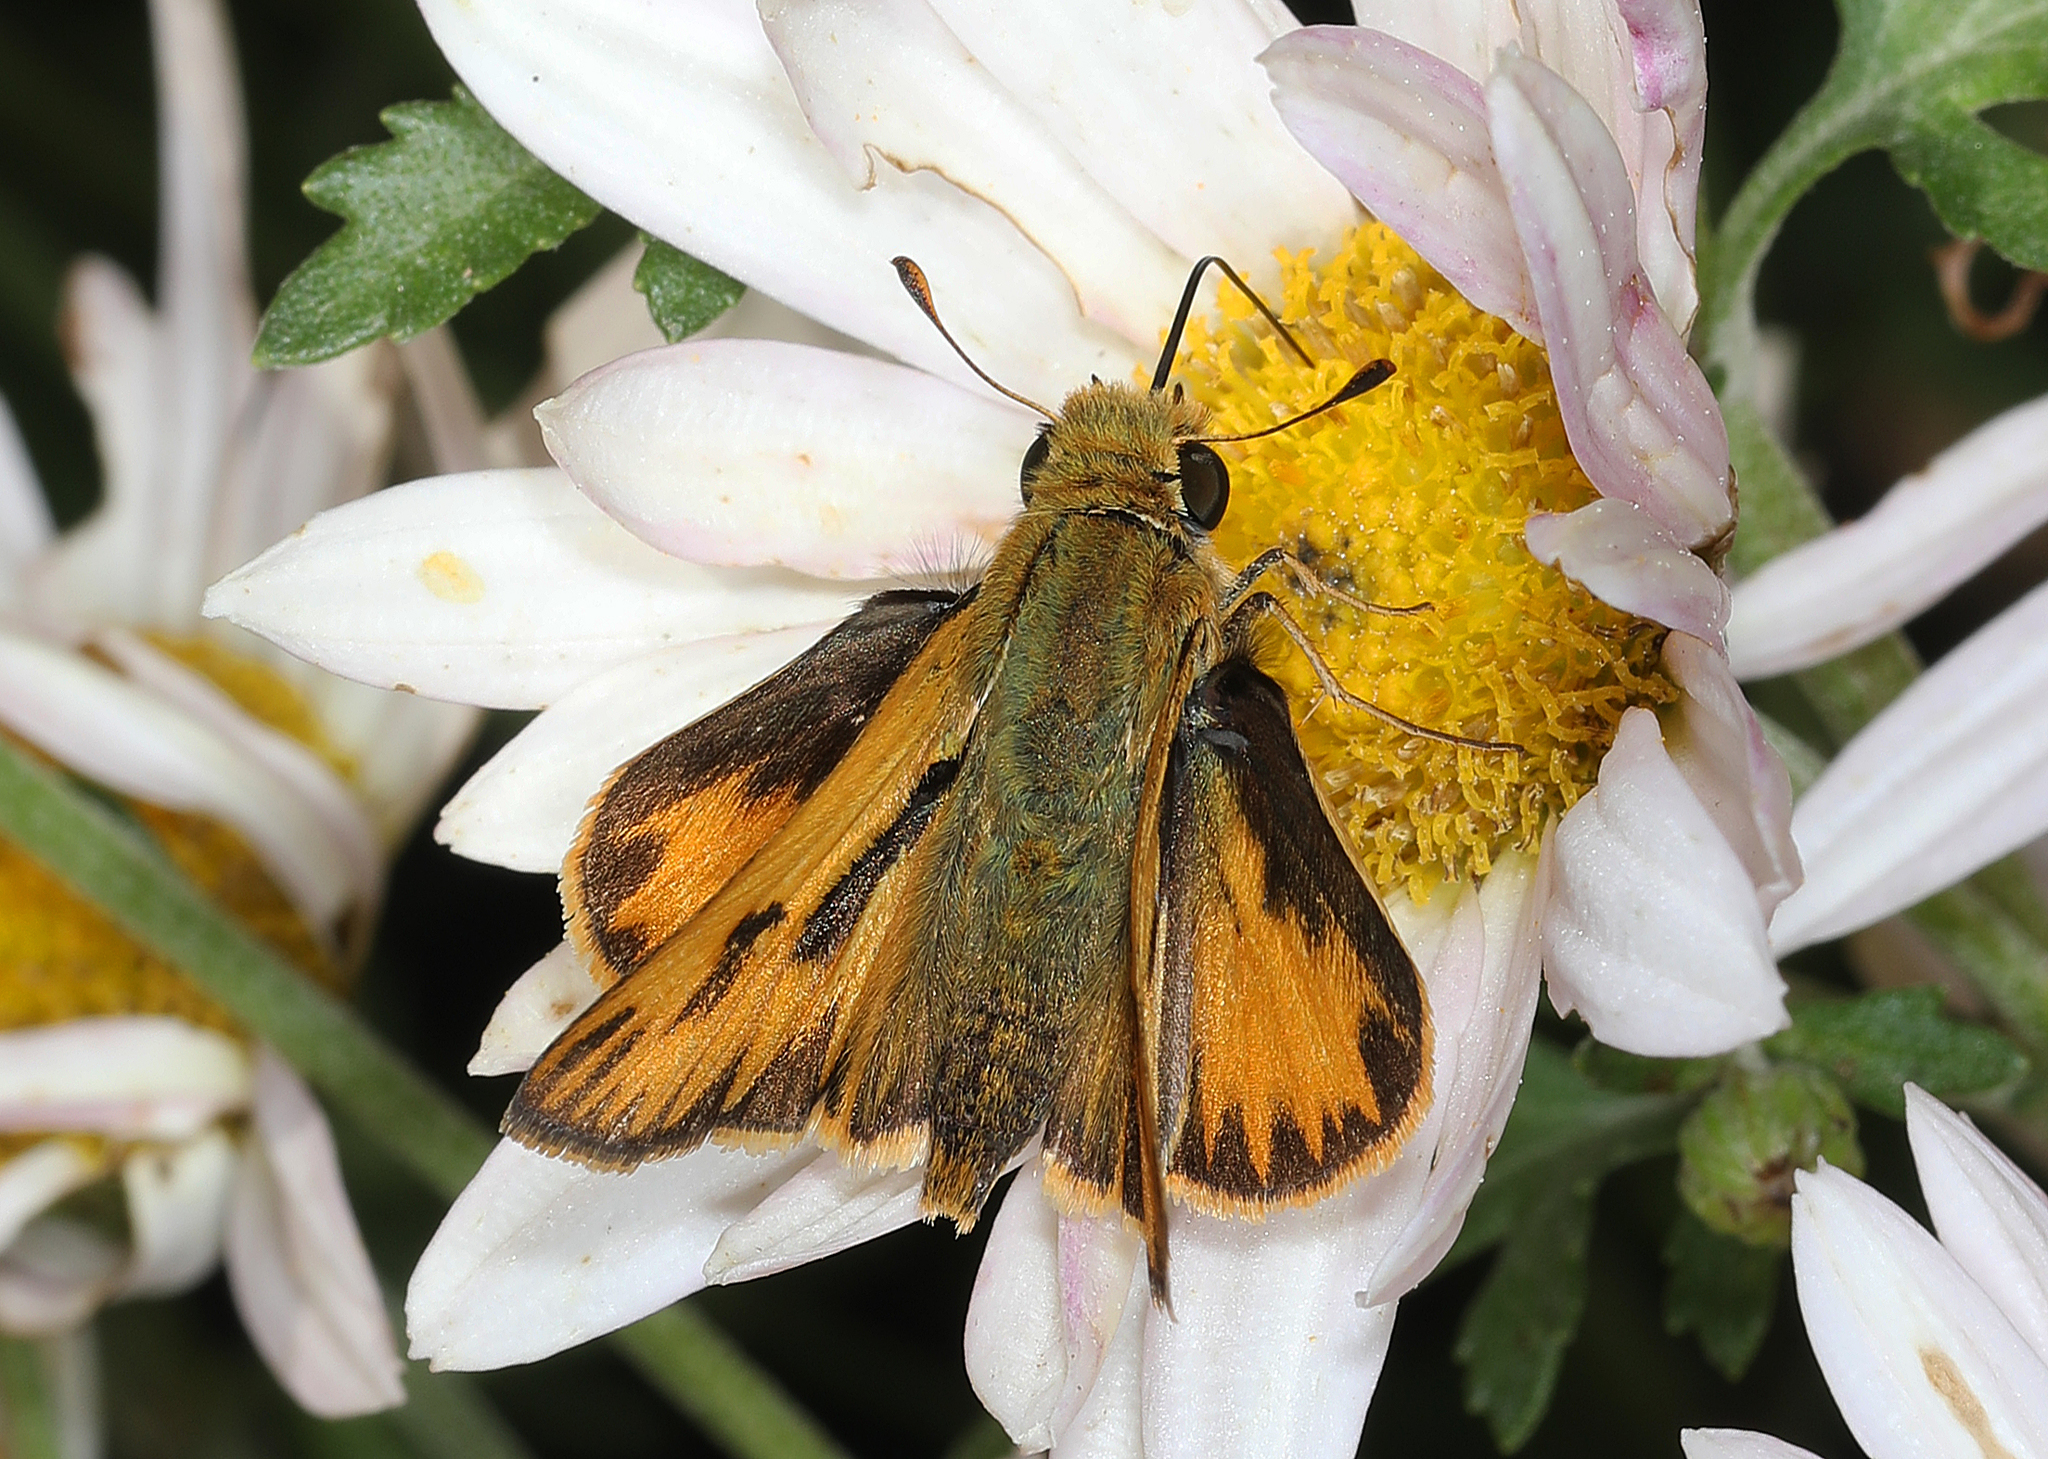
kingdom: Animalia
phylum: Arthropoda
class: Insecta
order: Lepidoptera
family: Hesperiidae
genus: Hylephila
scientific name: Hylephila phyleus
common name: Fiery skipper
